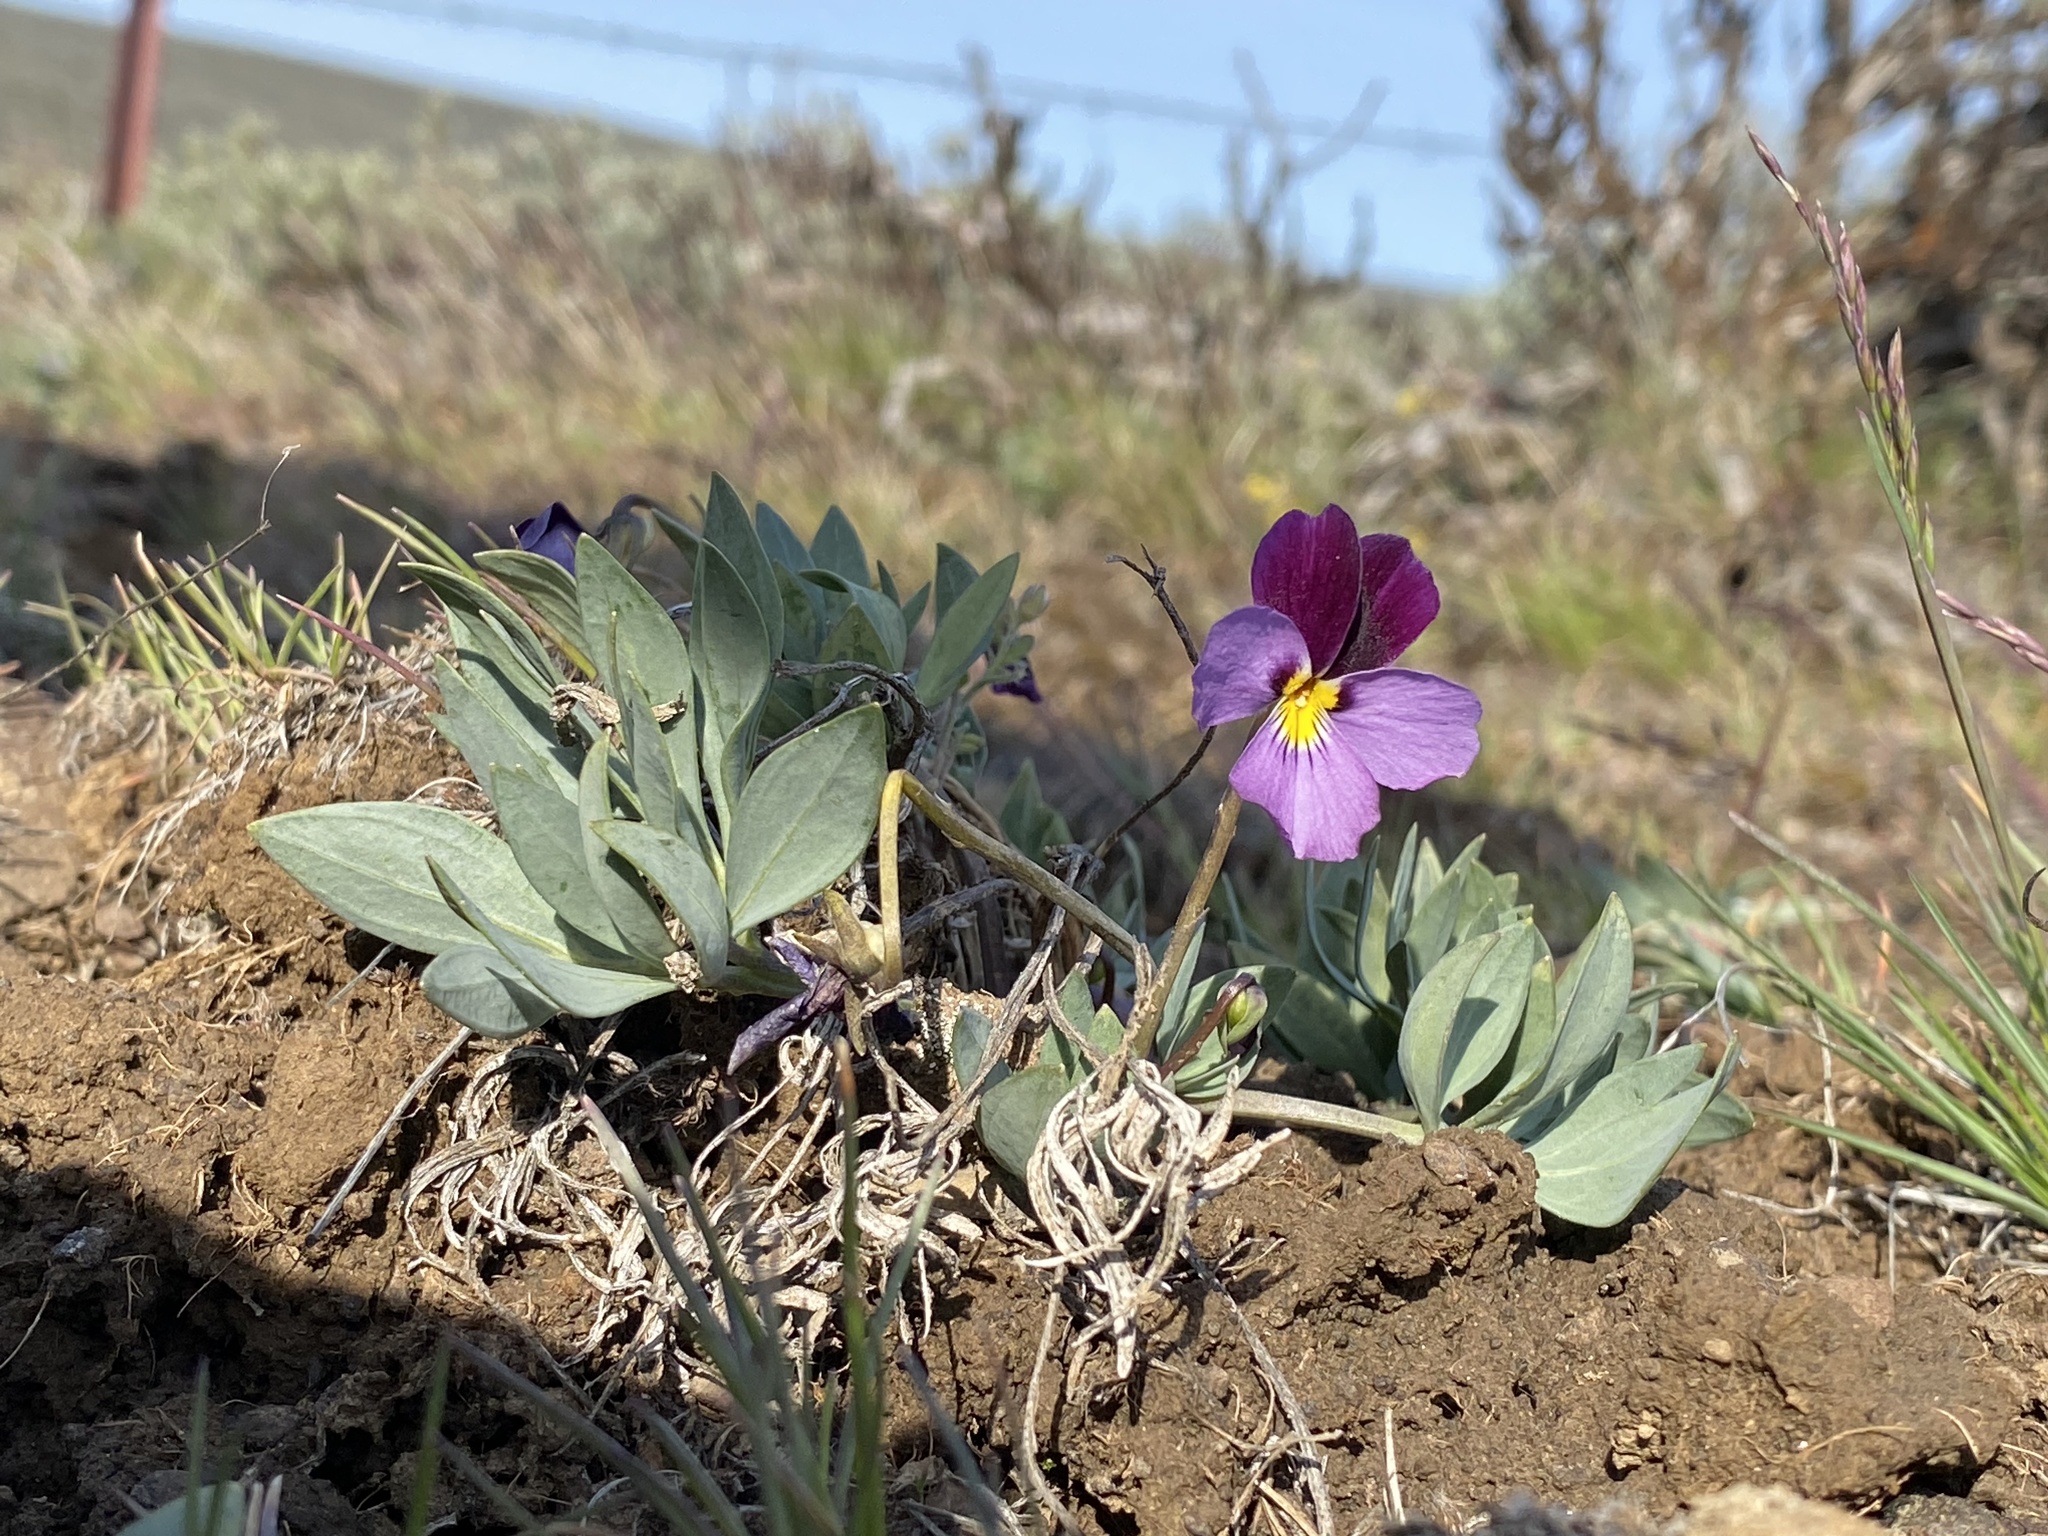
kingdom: Plantae
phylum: Tracheophyta
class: Magnoliopsida
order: Malpighiales
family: Violaceae
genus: Viola
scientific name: Viola trinervata
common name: Sagebrush violet
